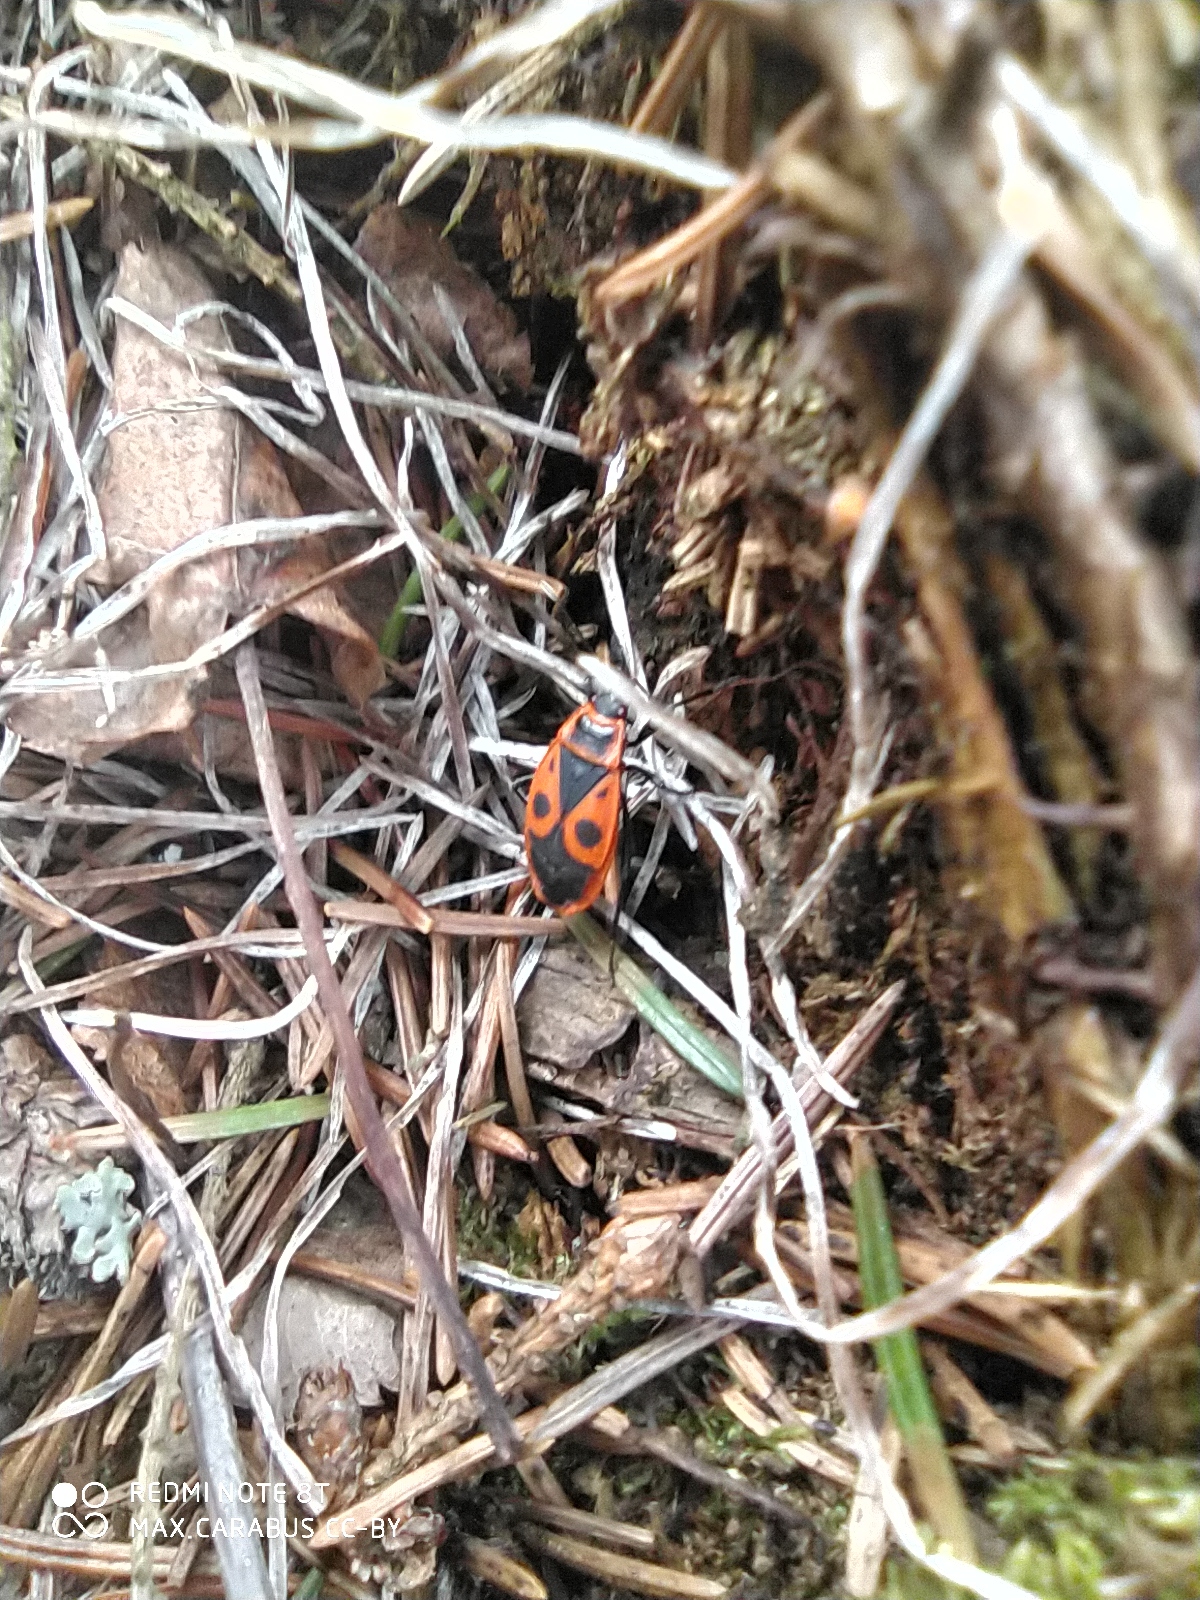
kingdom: Animalia
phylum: Arthropoda
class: Insecta
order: Hemiptera
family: Pyrrhocoridae
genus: Pyrrhocoris
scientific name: Pyrrhocoris apterus
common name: Firebug
